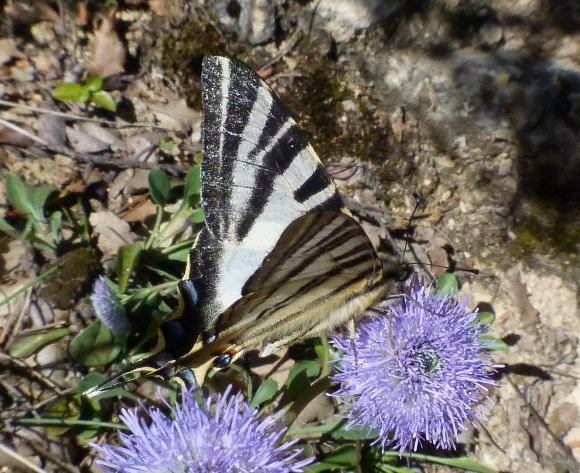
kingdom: Animalia
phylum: Arthropoda
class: Insecta
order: Lepidoptera
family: Papilionidae
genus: Iphiclides
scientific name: Iphiclides feisthamelii
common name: Iberian scarce swallowtail
